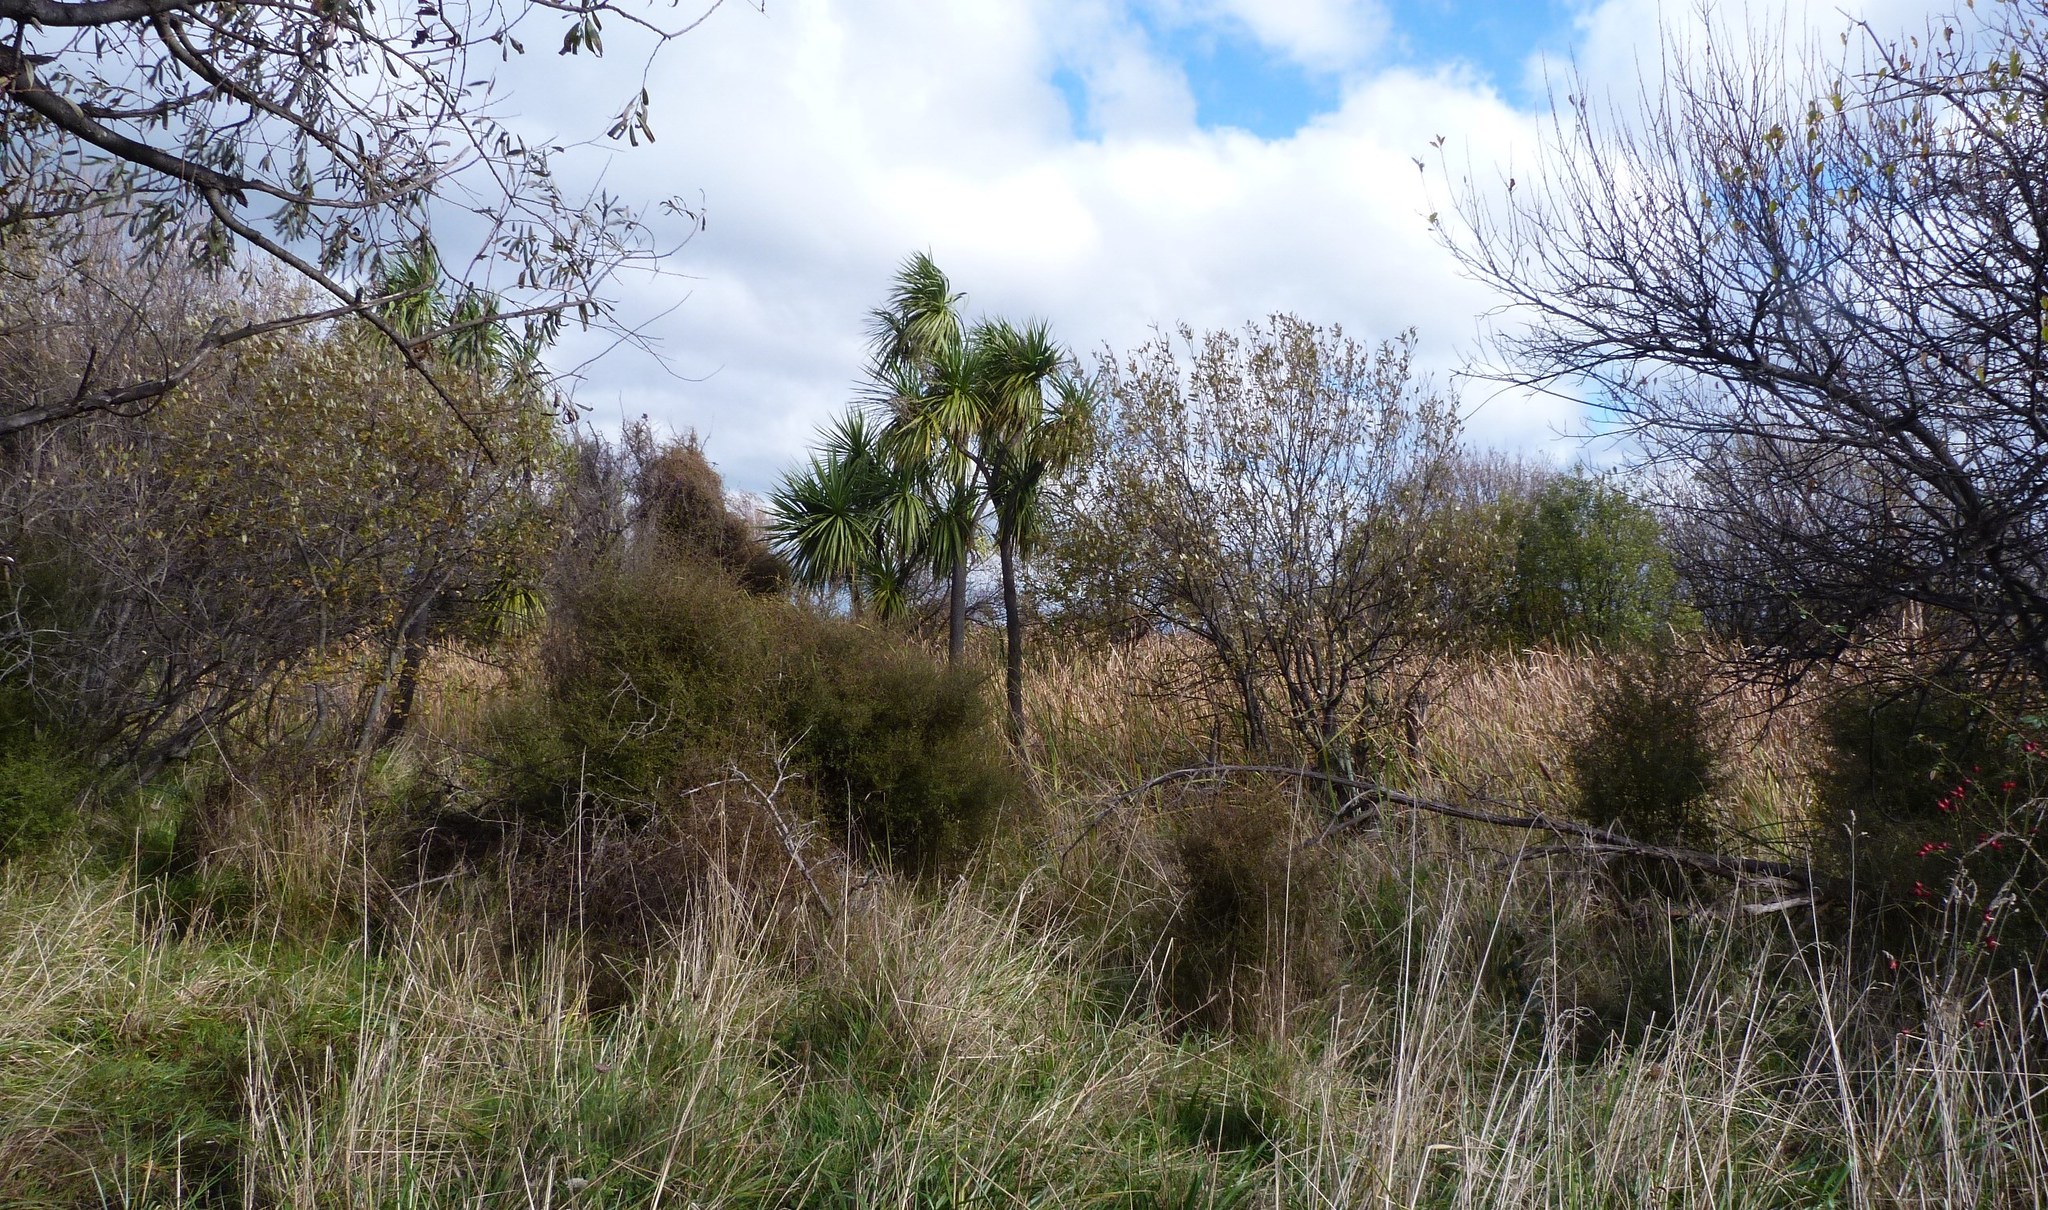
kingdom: Plantae
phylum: Tracheophyta
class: Magnoliopsida
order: Gentianales
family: Rubiaceae
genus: Coprosma
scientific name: Coprosma propinqua
